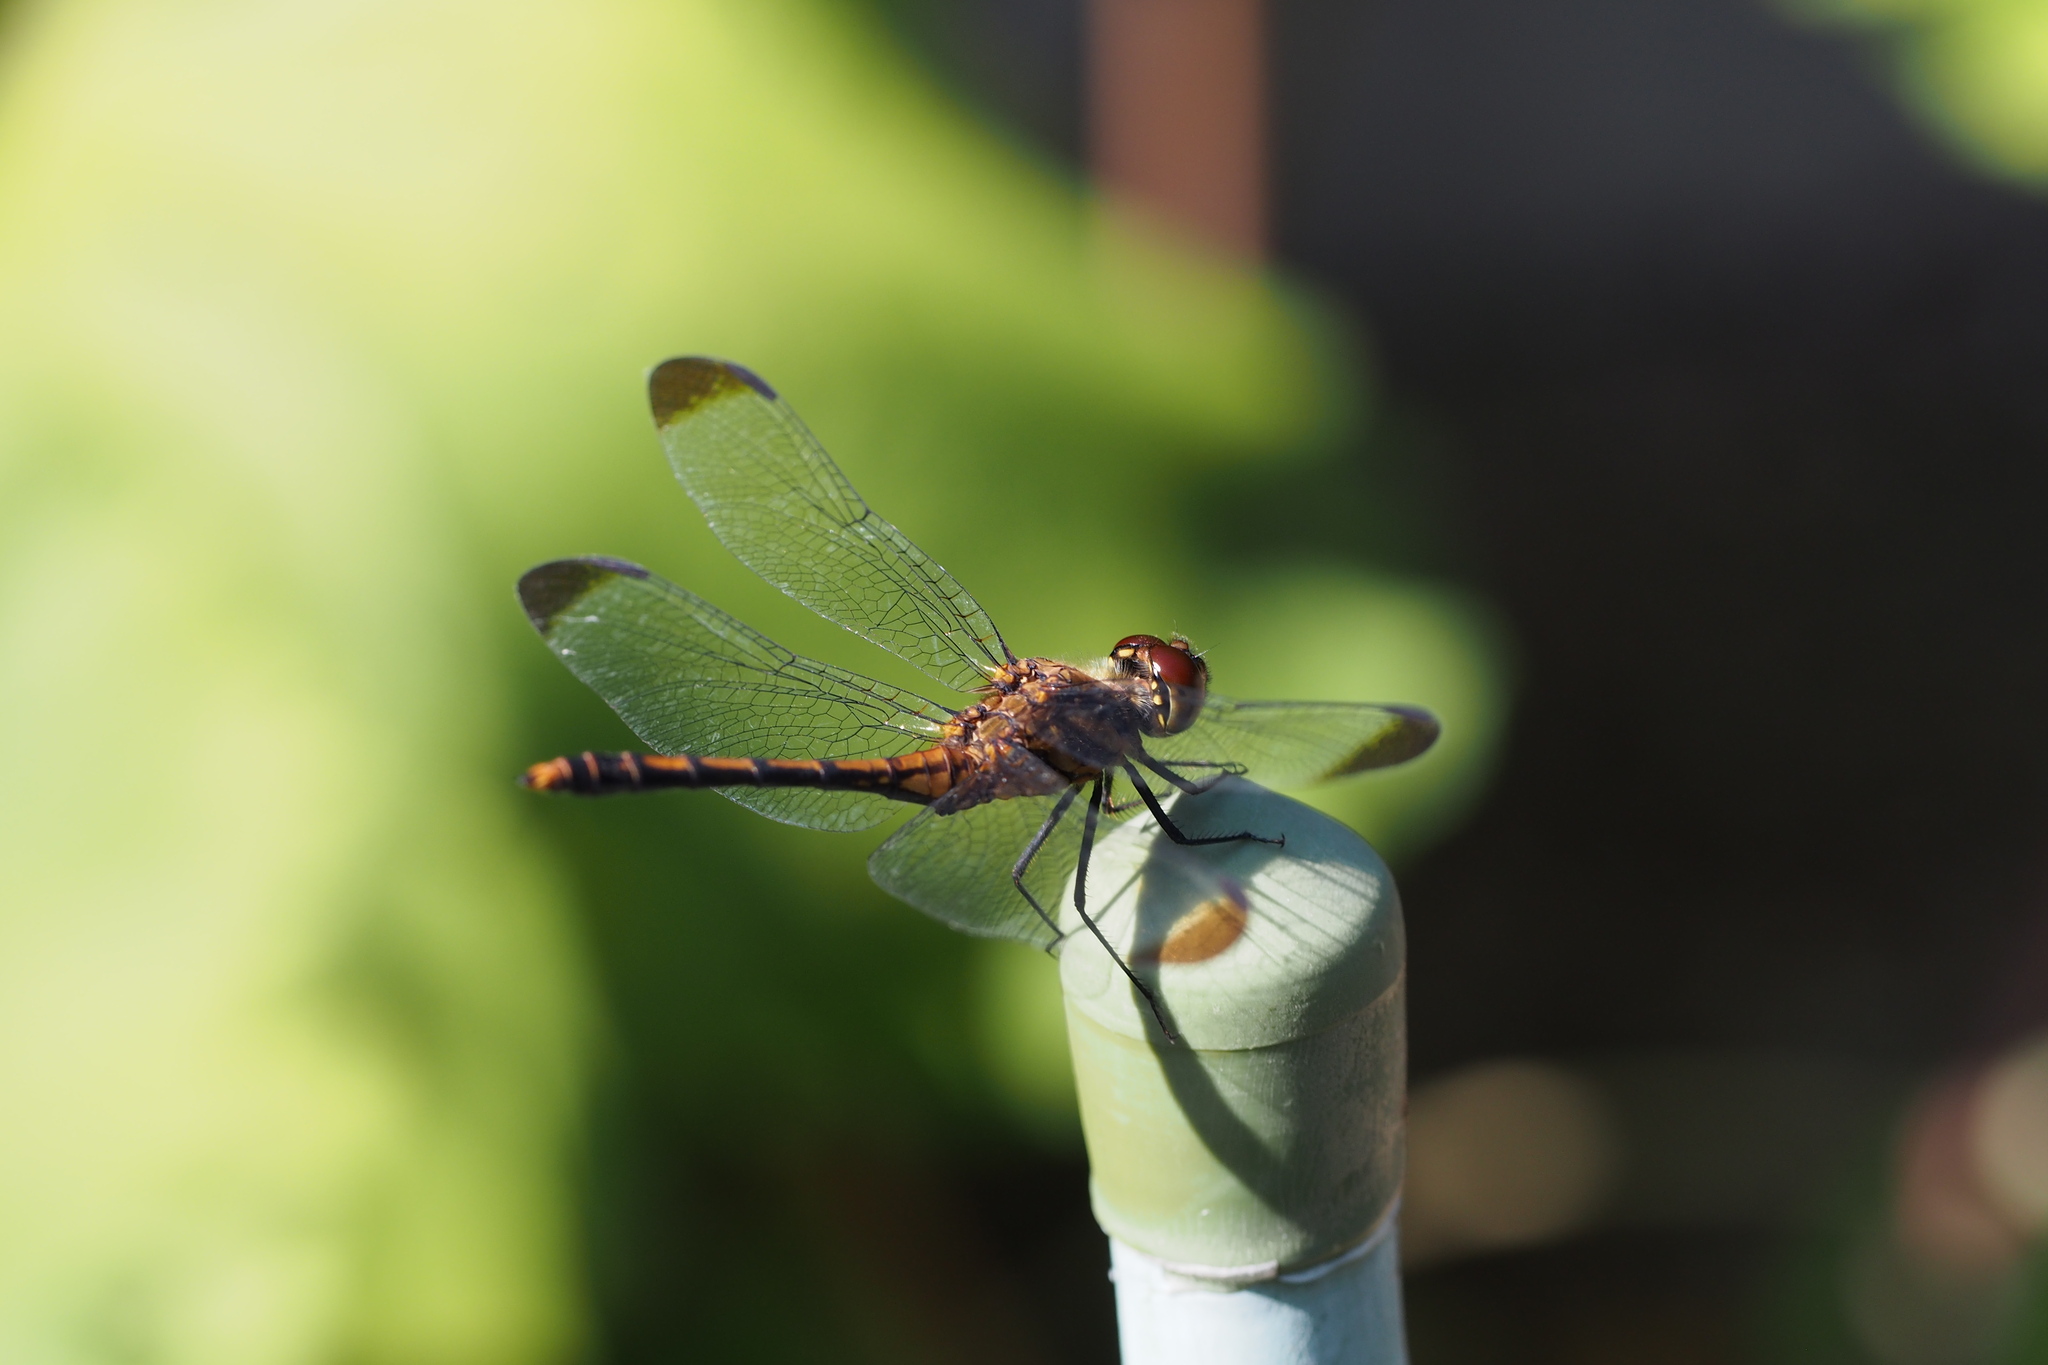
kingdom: Animalia
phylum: Arthropoda
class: Insecta
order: Odonata
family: Libellulidae
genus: Sympetrum
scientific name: Sympetrum infuscatum
